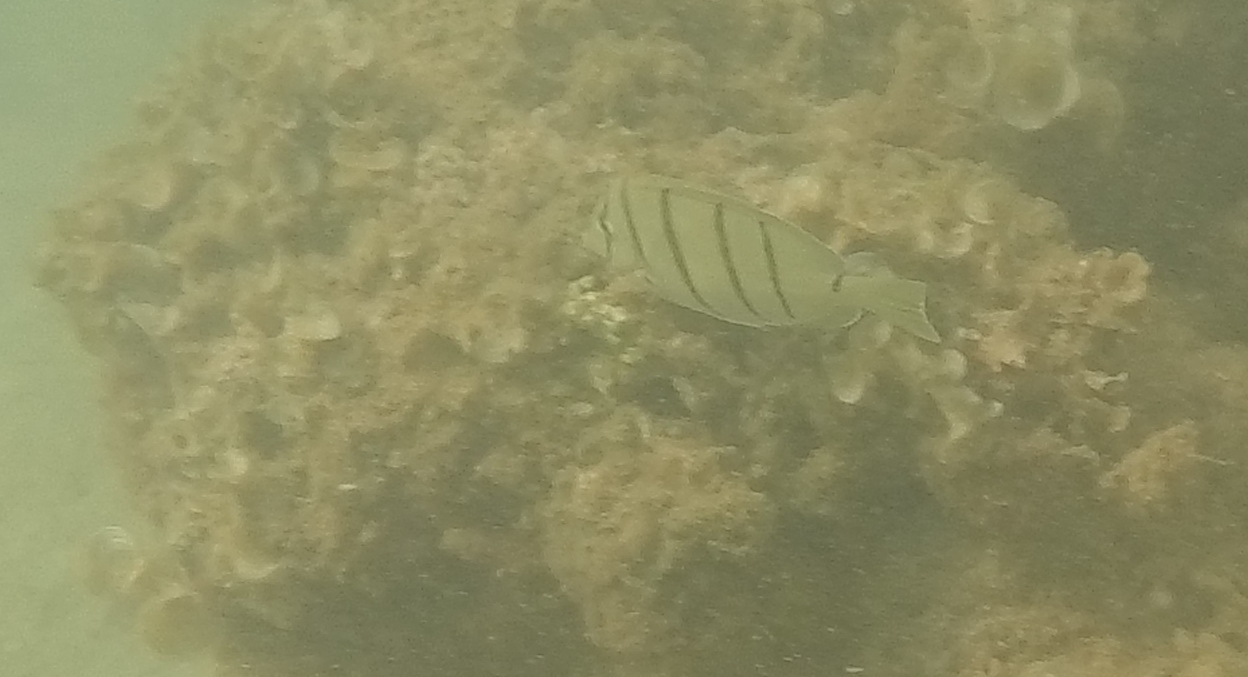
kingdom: Animalia
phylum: Chordata
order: Perciformes
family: Acanthuridae
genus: Acanthurus
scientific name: Acanthurus triostegus
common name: Convict surgeonfish
